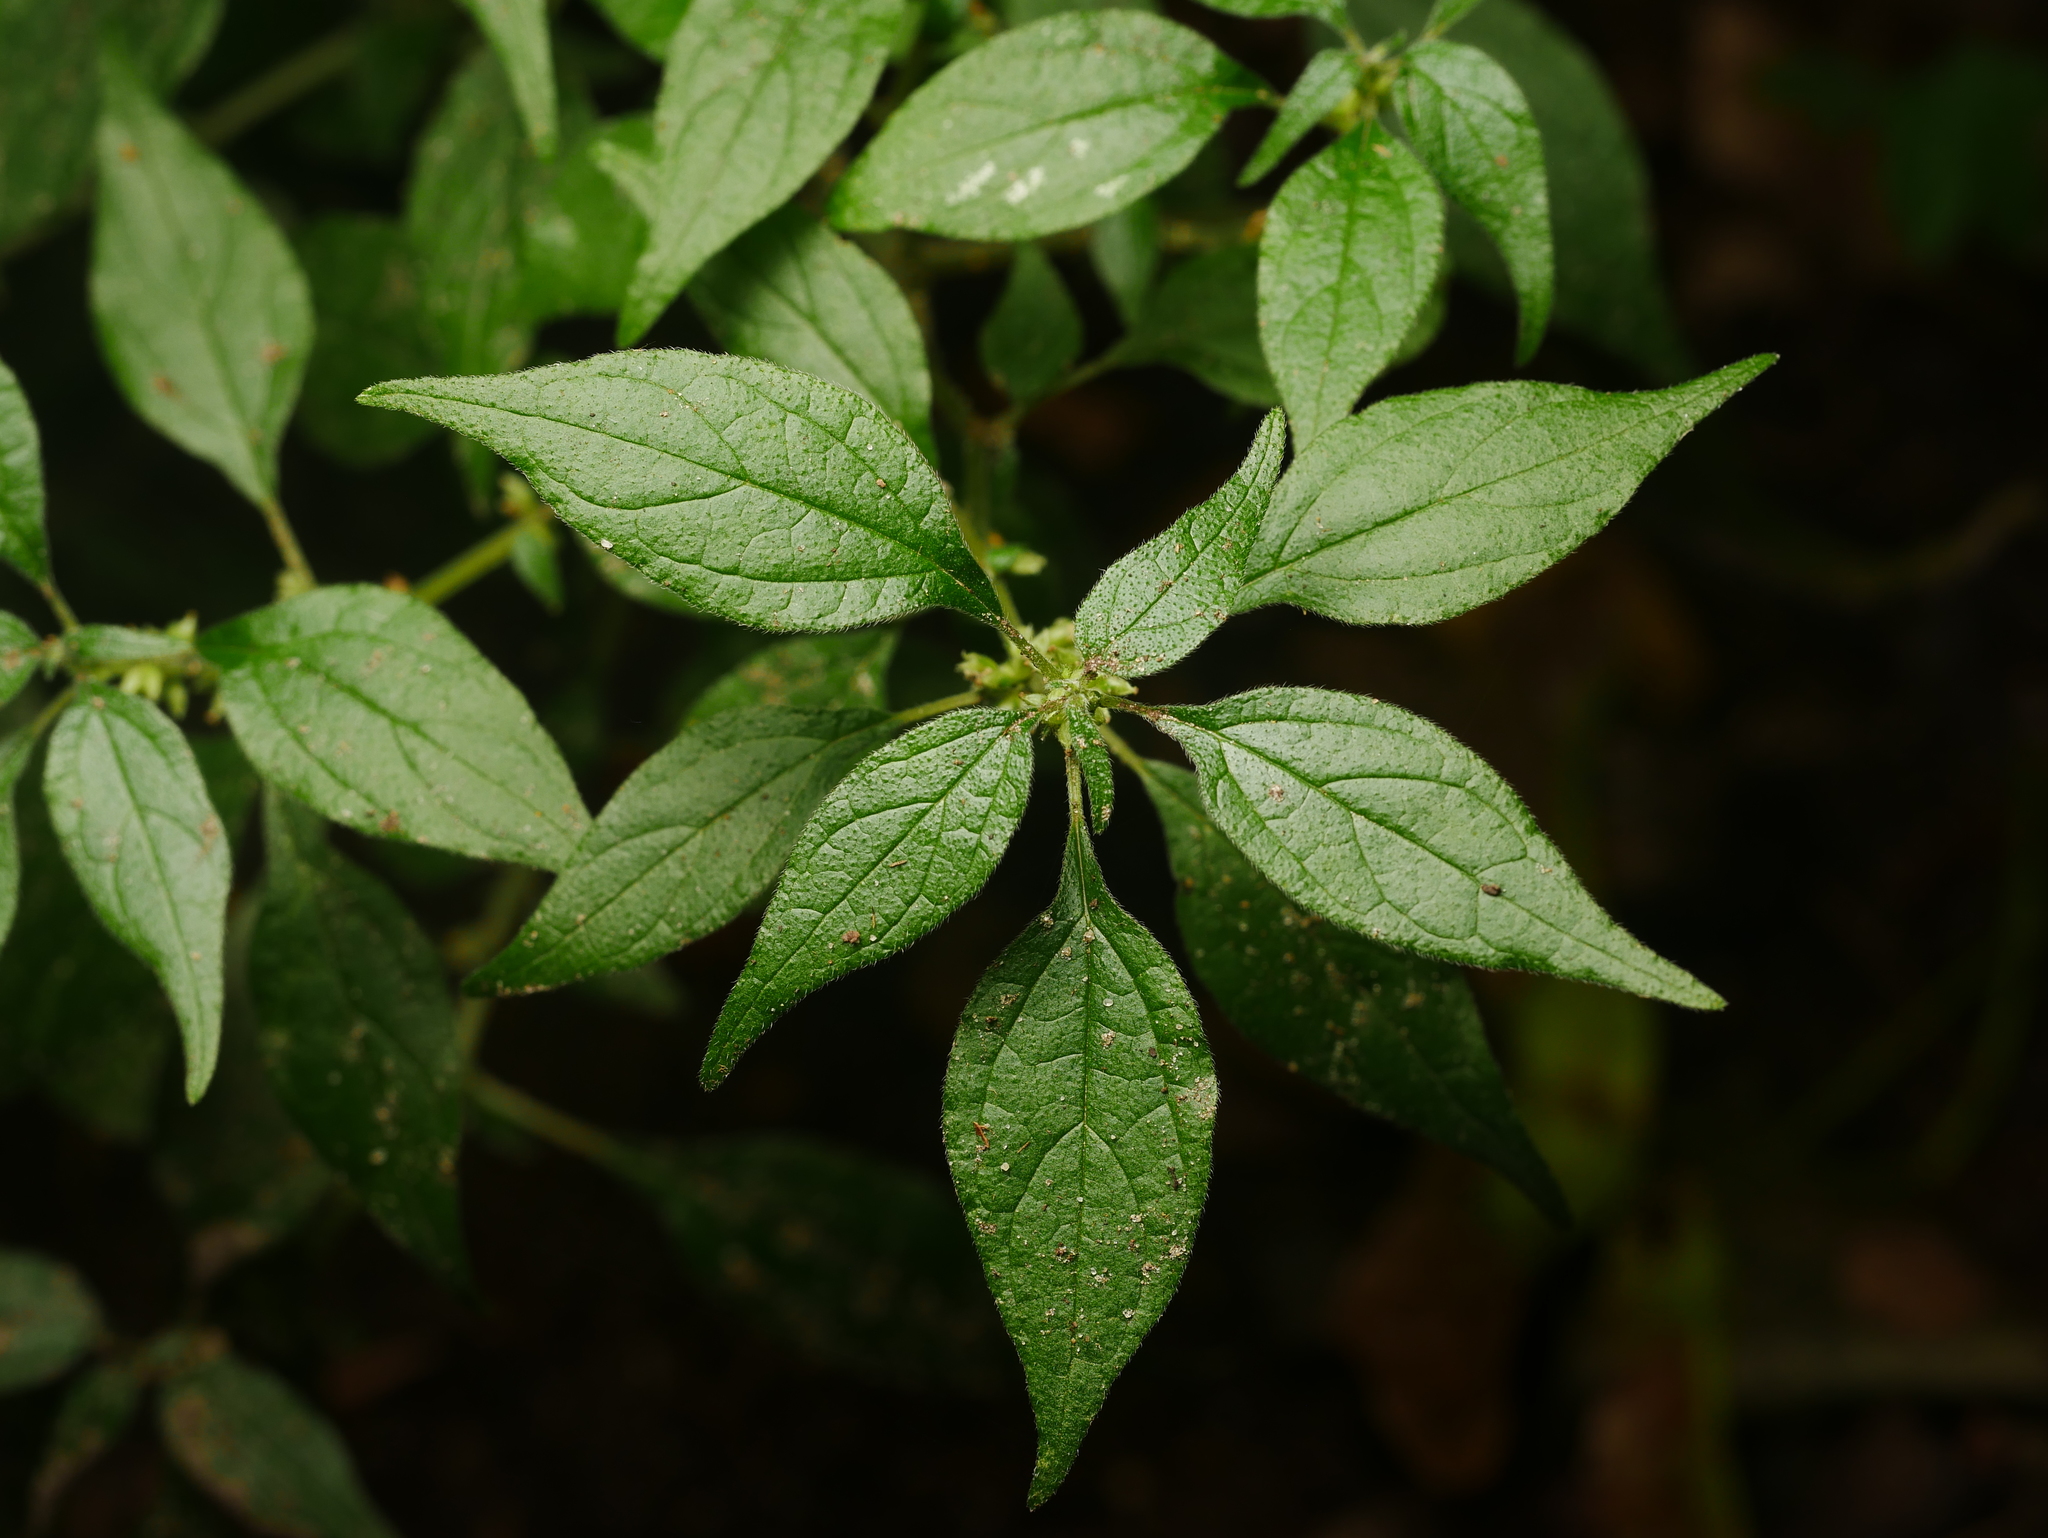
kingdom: Plantae
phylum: Tracheophyta
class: Magnoliopsida
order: Rosales
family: Urticaceae
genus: Parietaria
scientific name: Parietaria officinalis
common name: Eastern pellitory-of-the-wall
